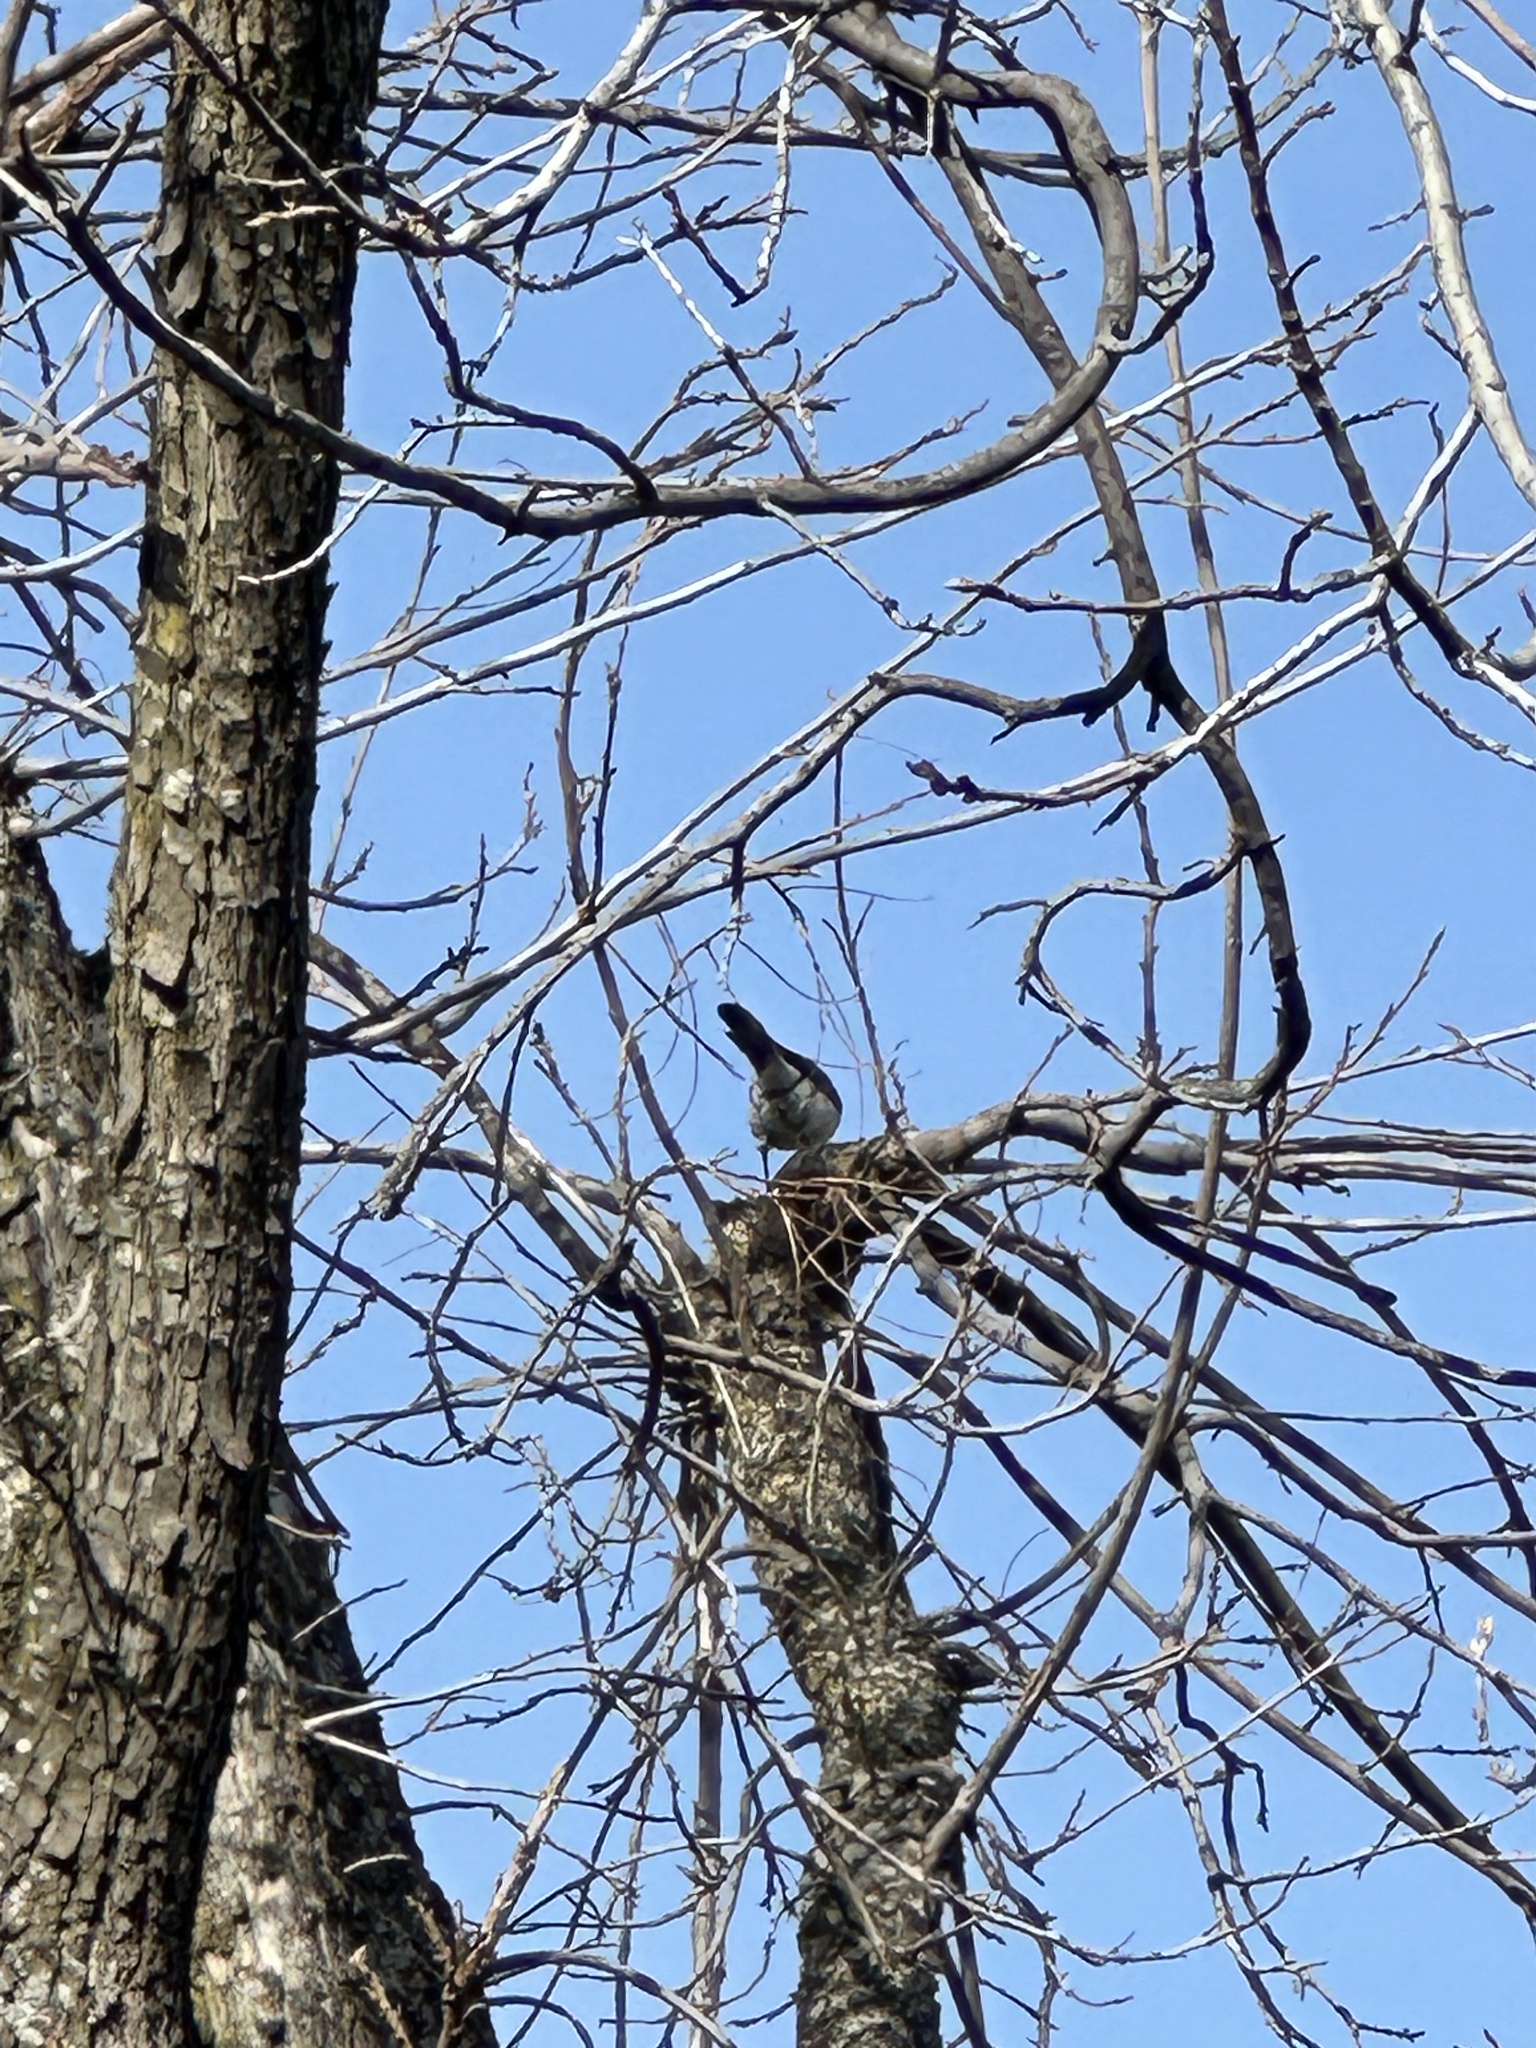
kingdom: Animalia
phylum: Chordata
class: Aves
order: Passeriformes
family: Corvidae
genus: Aphelocoma
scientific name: Aphelocoma californica
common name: California scrub-jay
